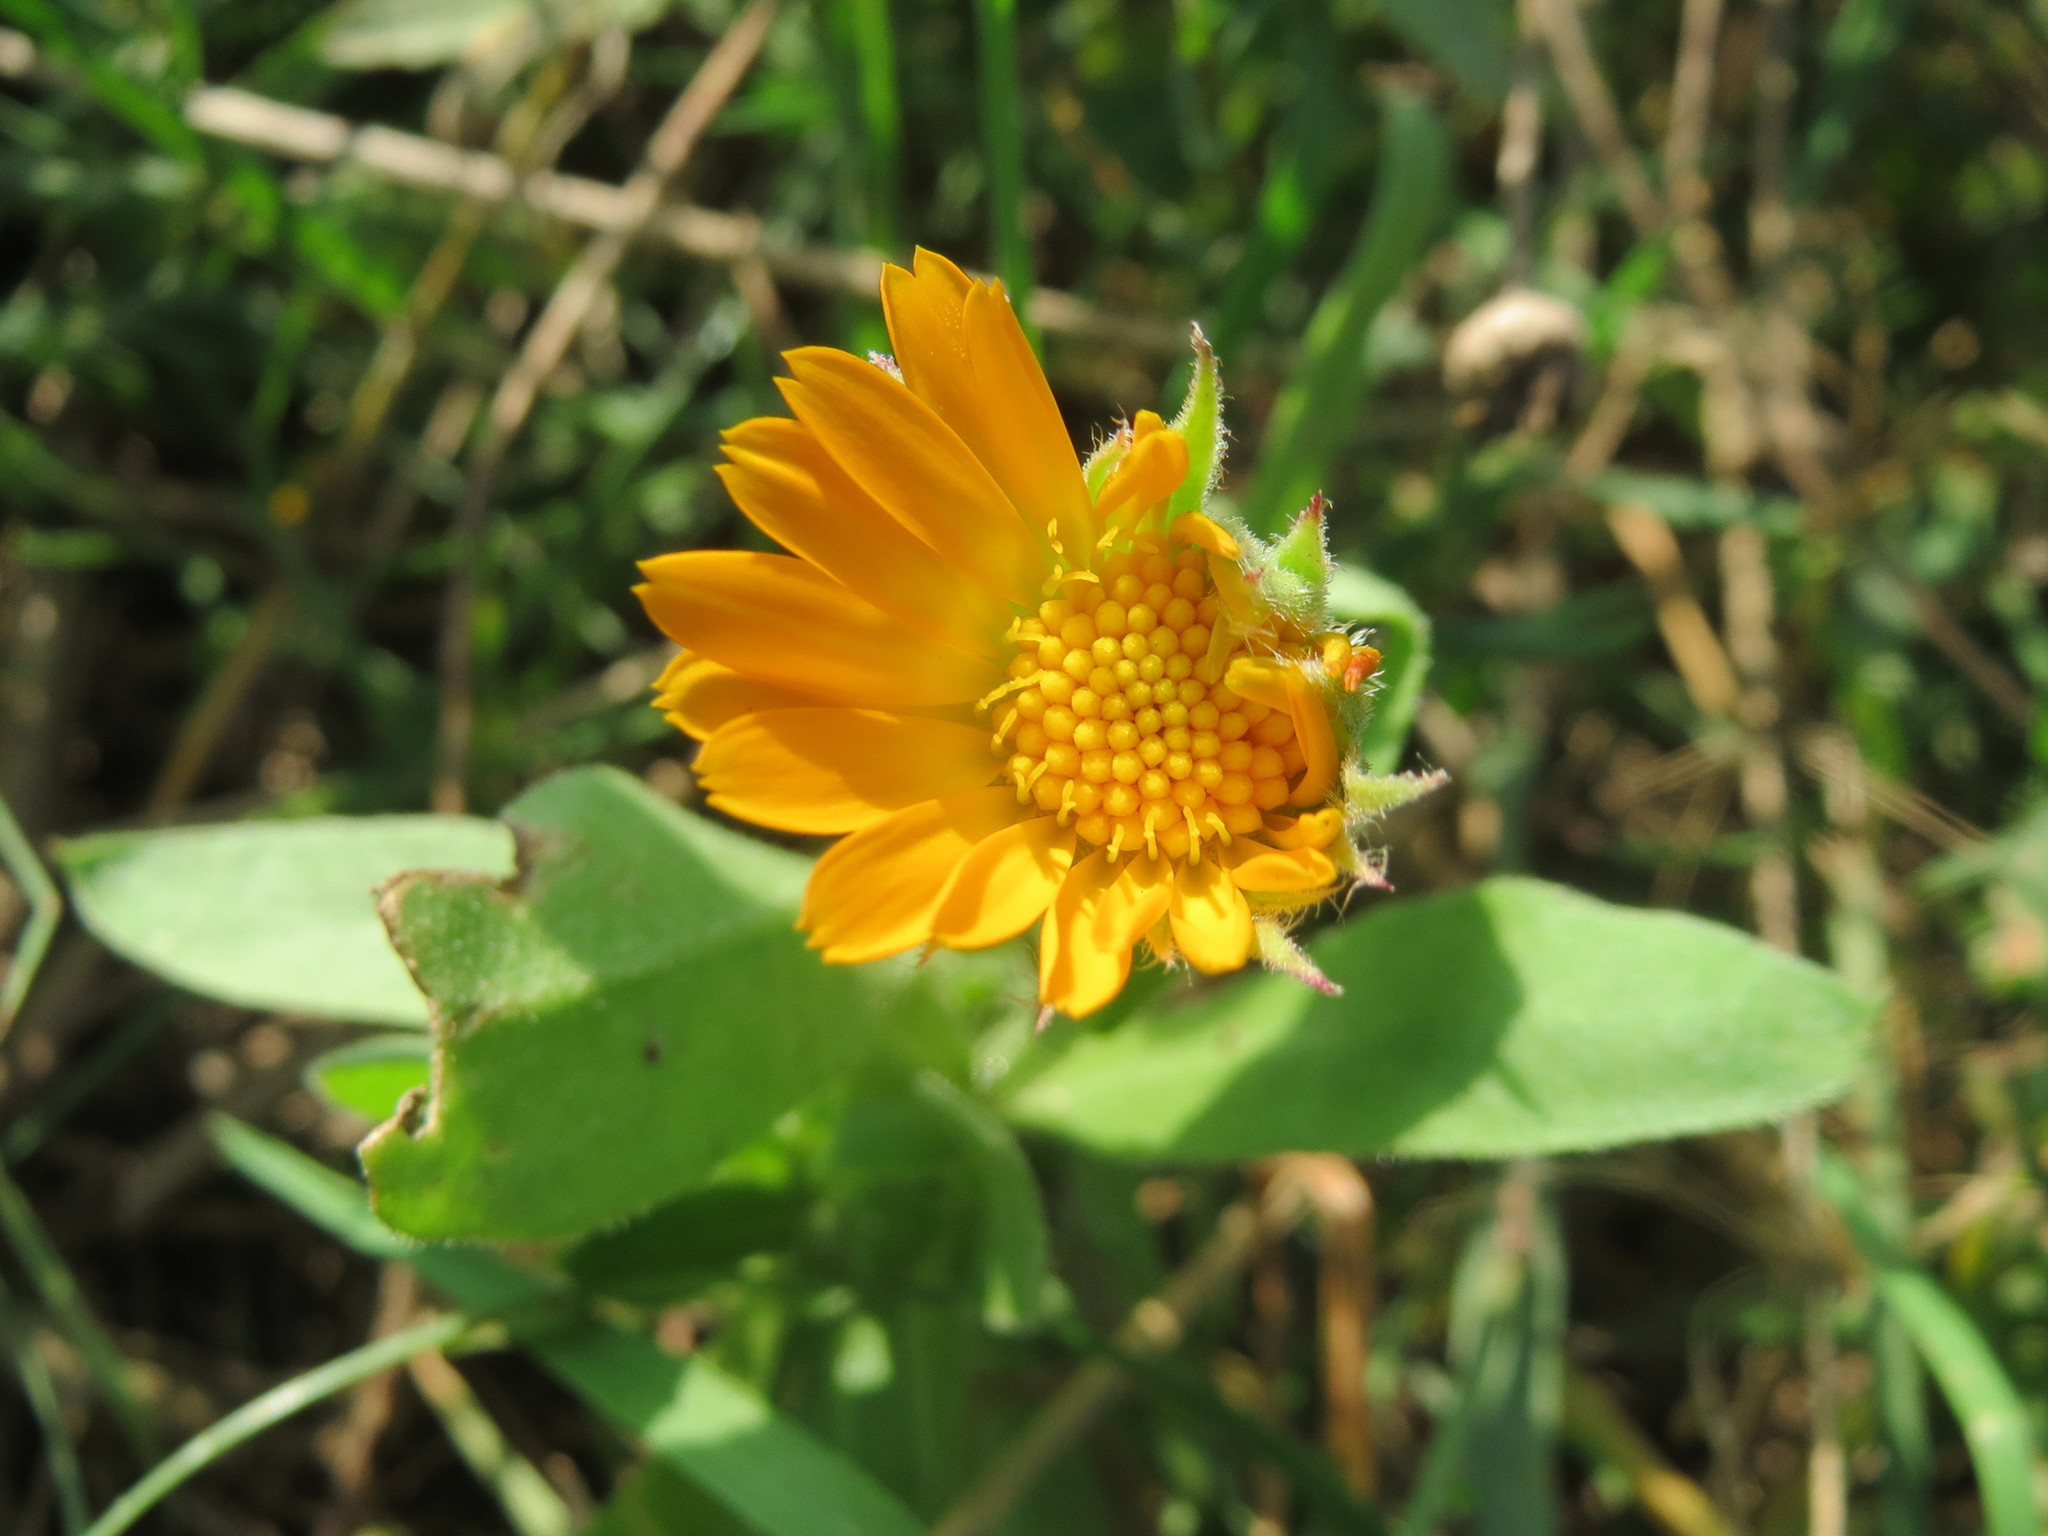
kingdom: Plantae
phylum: Tracheophyta
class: Magnoliopsida
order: Asterales
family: Asteraceae
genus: Calendula
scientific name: Calendula officinalis
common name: Pot marigold
